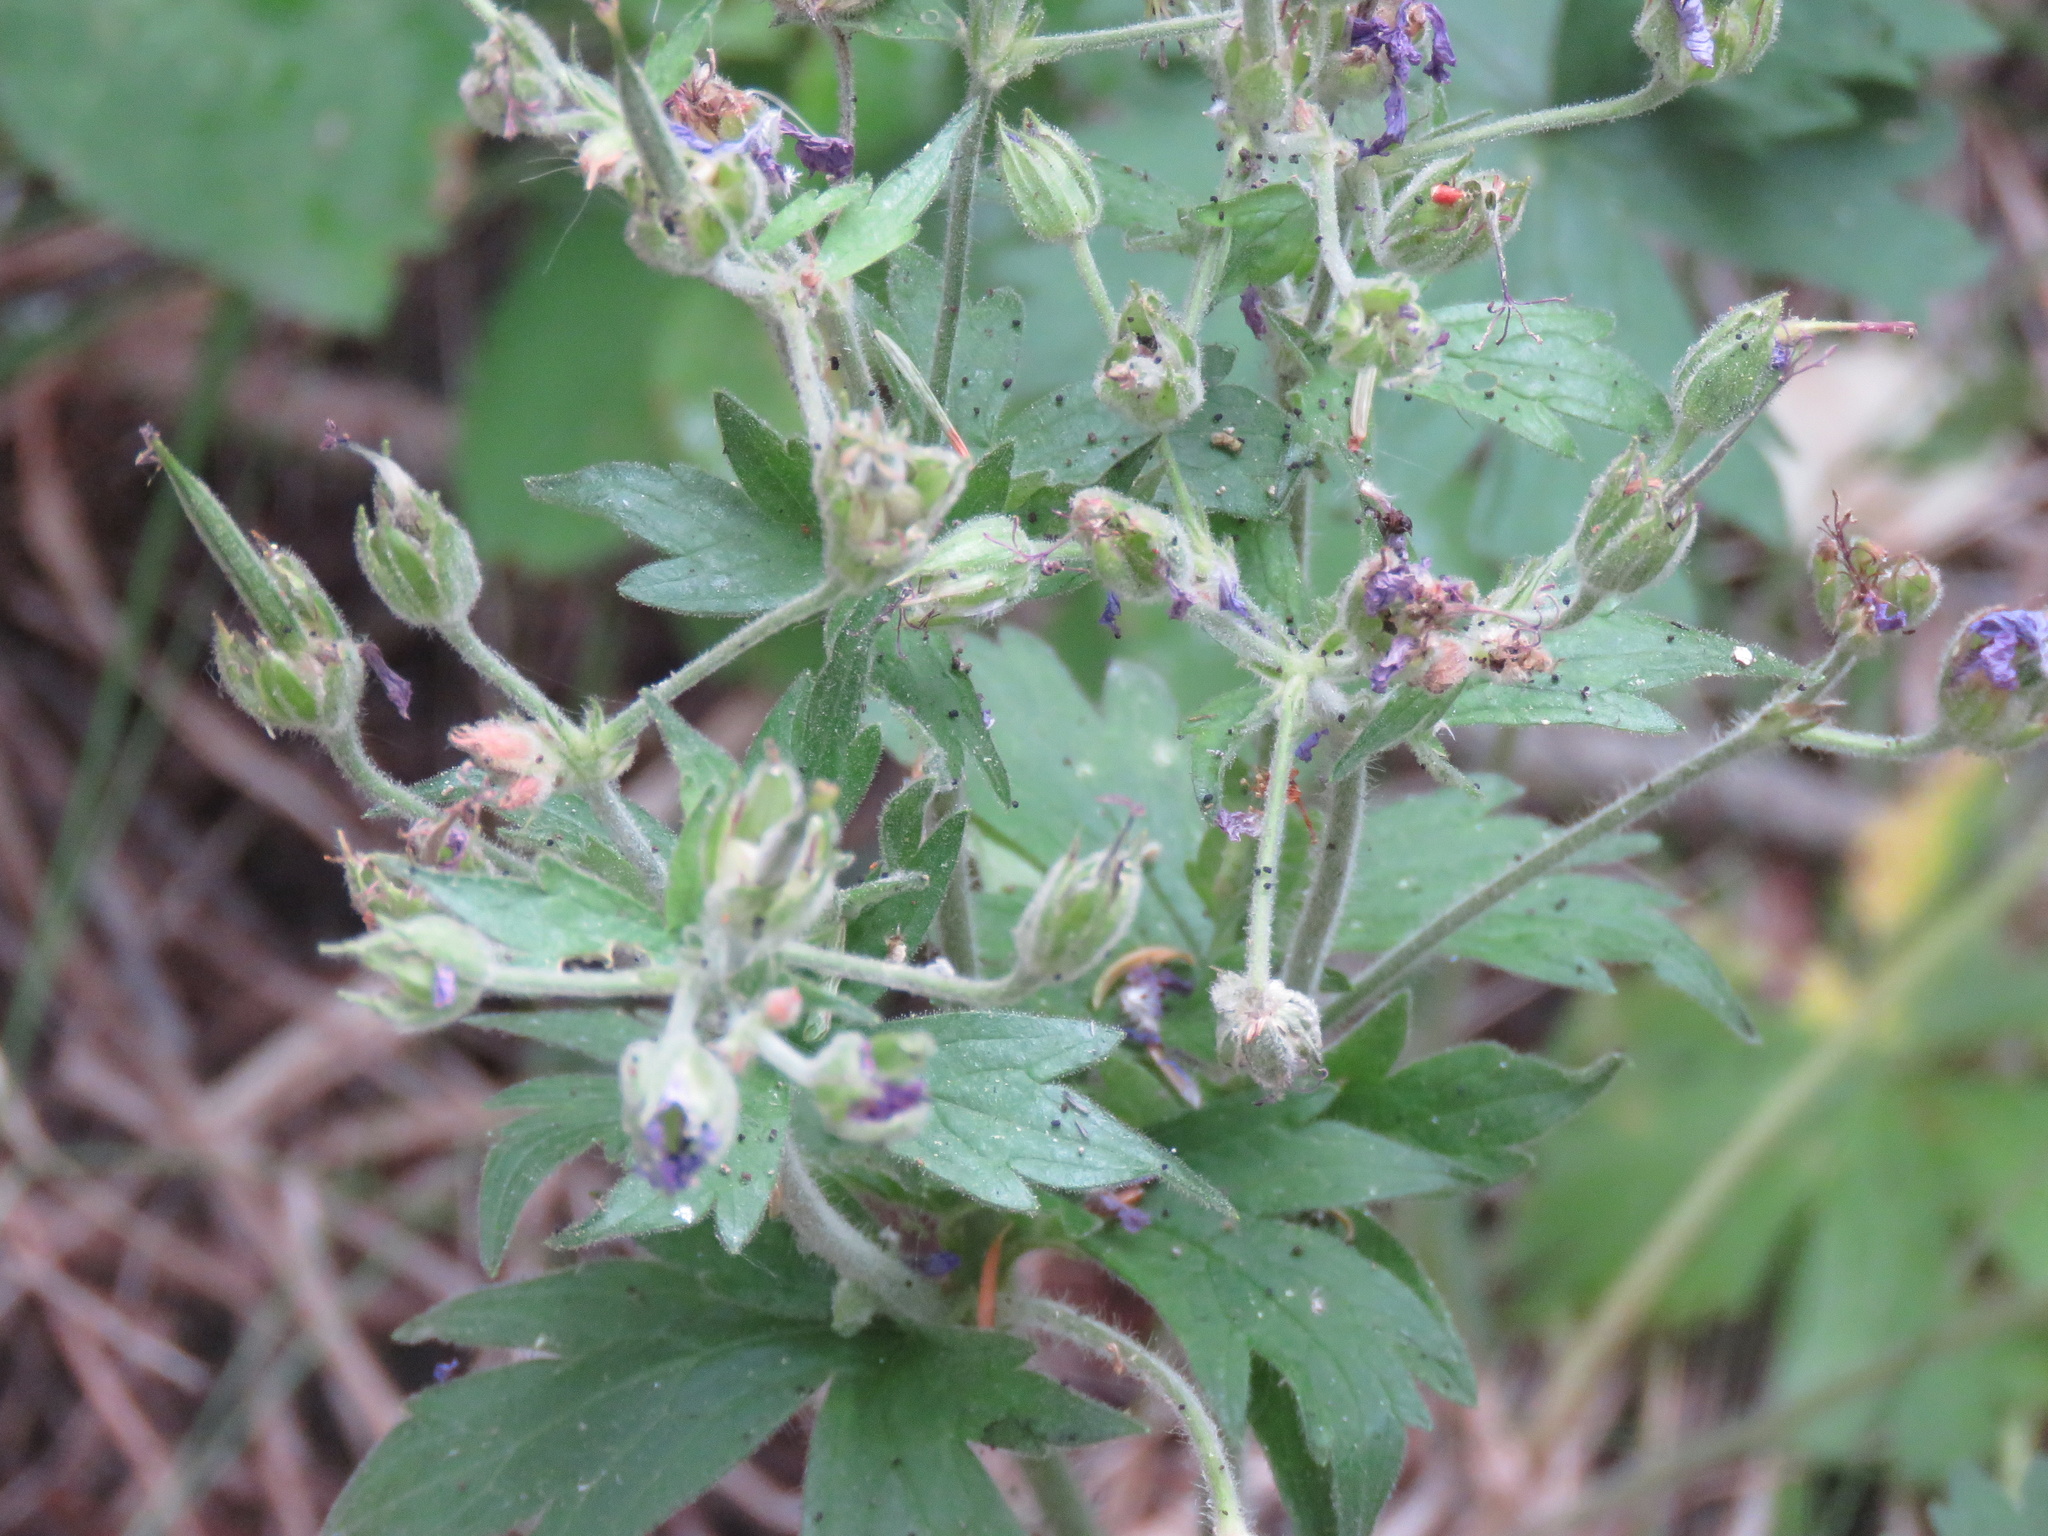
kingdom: Plantae
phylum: Tracheophyta
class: Magnoliopsida
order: Geraniales
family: Geraniaceae
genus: Geranium
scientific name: Geranium viscosissimum
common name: Purple geranium
